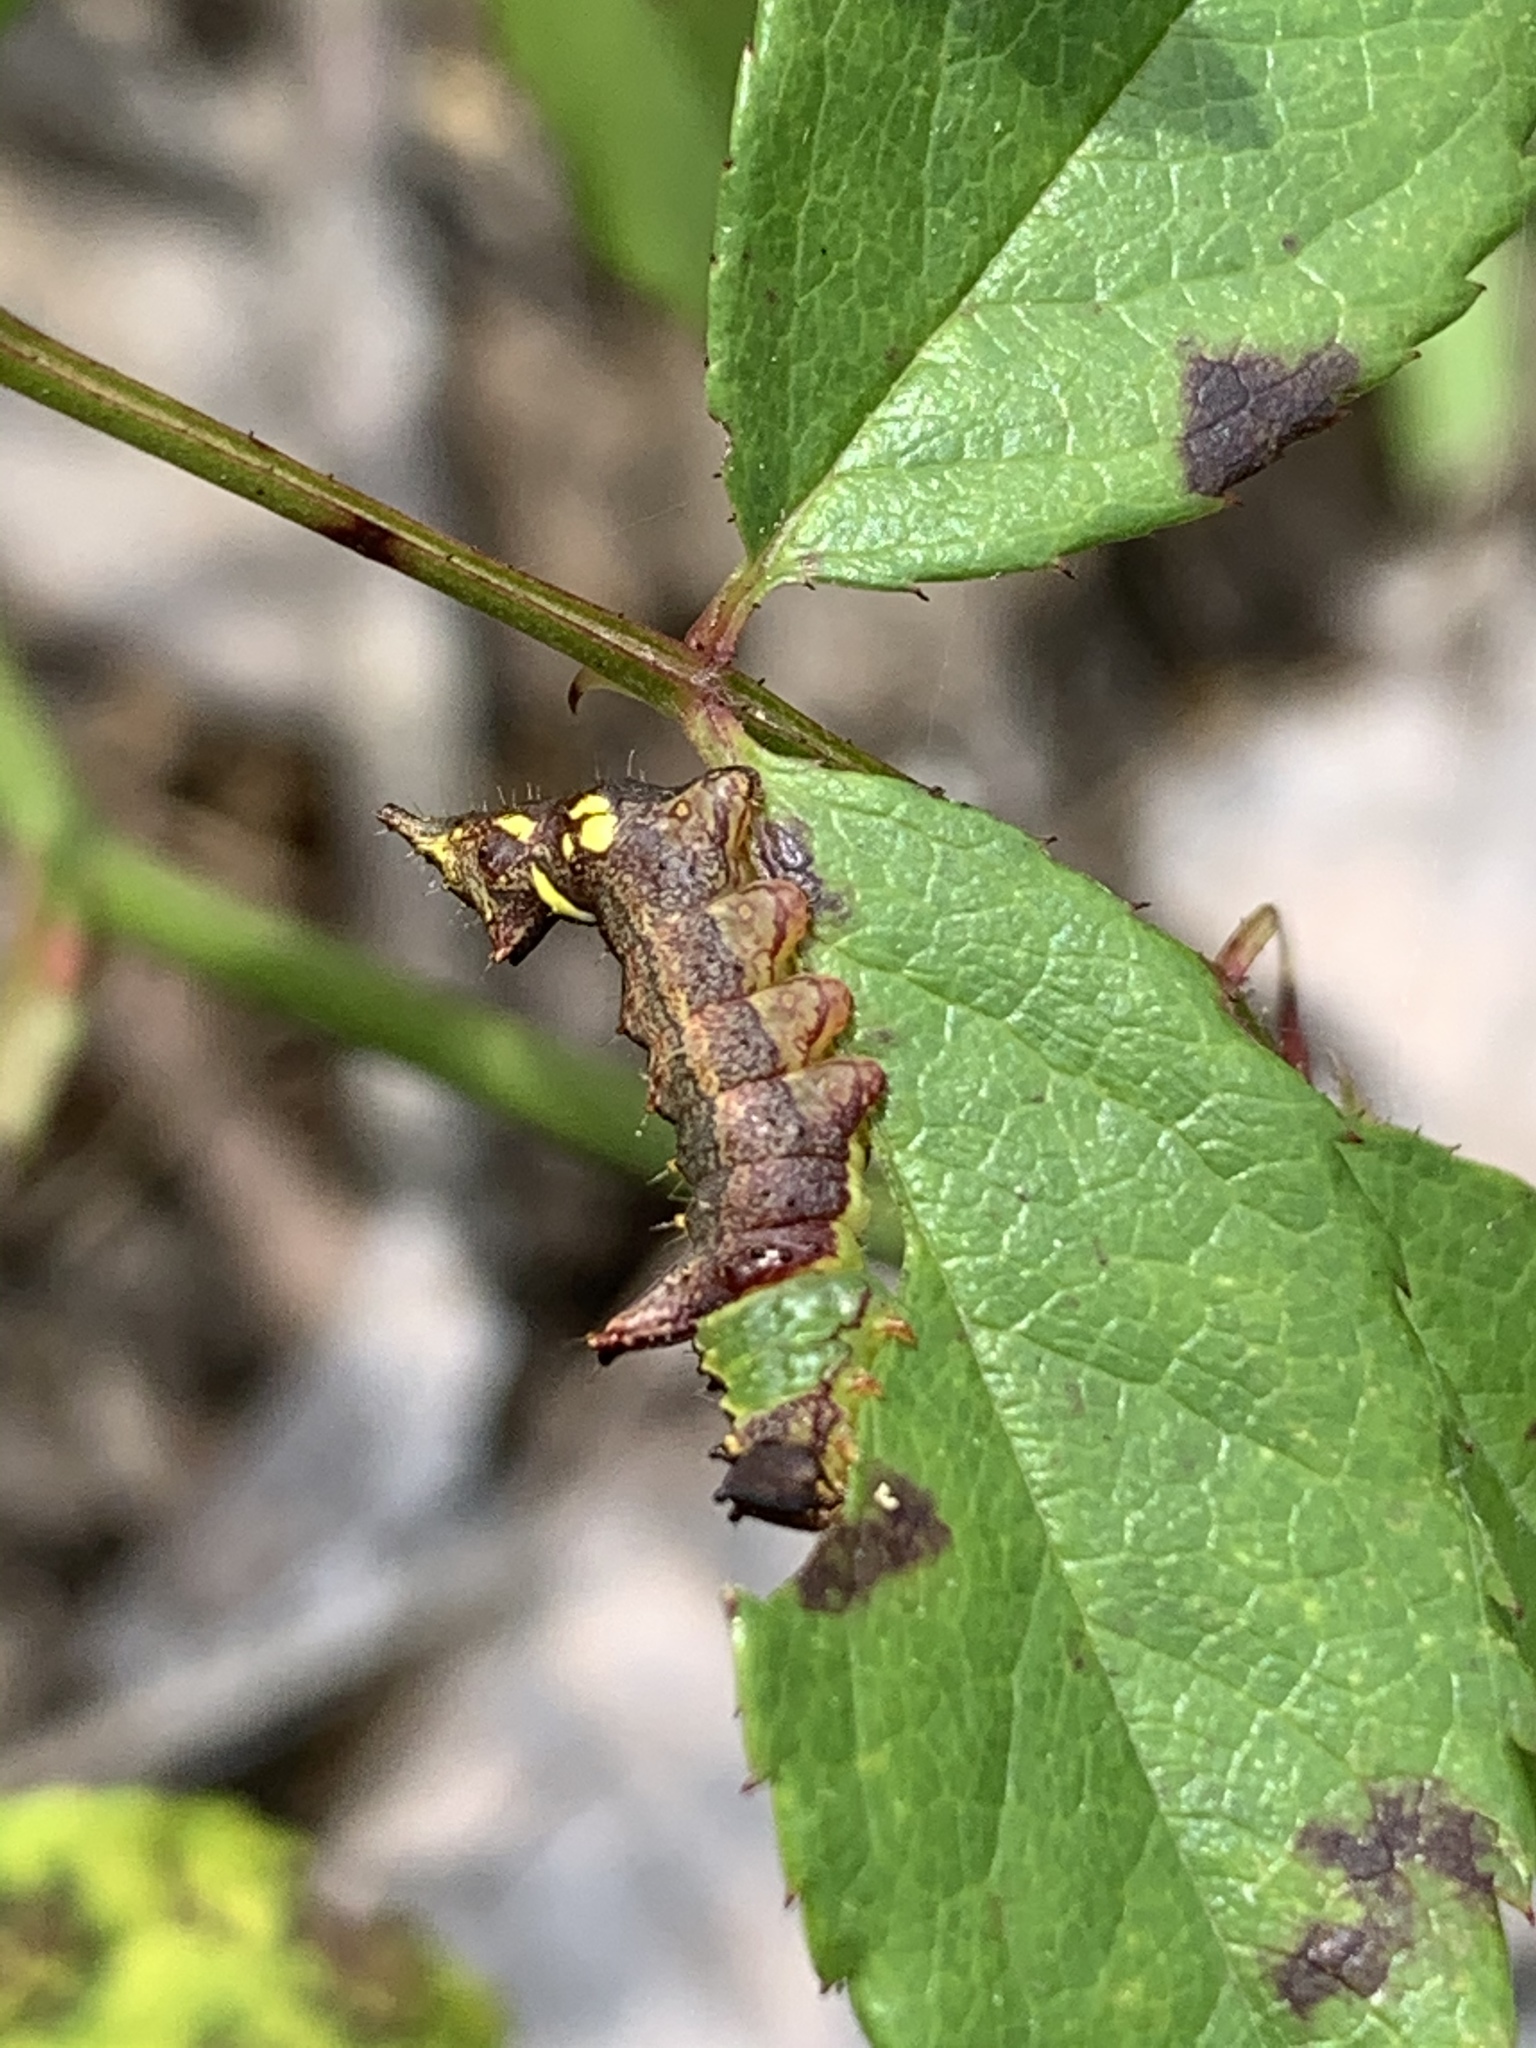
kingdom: Animalia
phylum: Arthropoda
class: Insecta
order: Lepidoptera
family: Notodontidae
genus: Schizura
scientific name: Schizura
